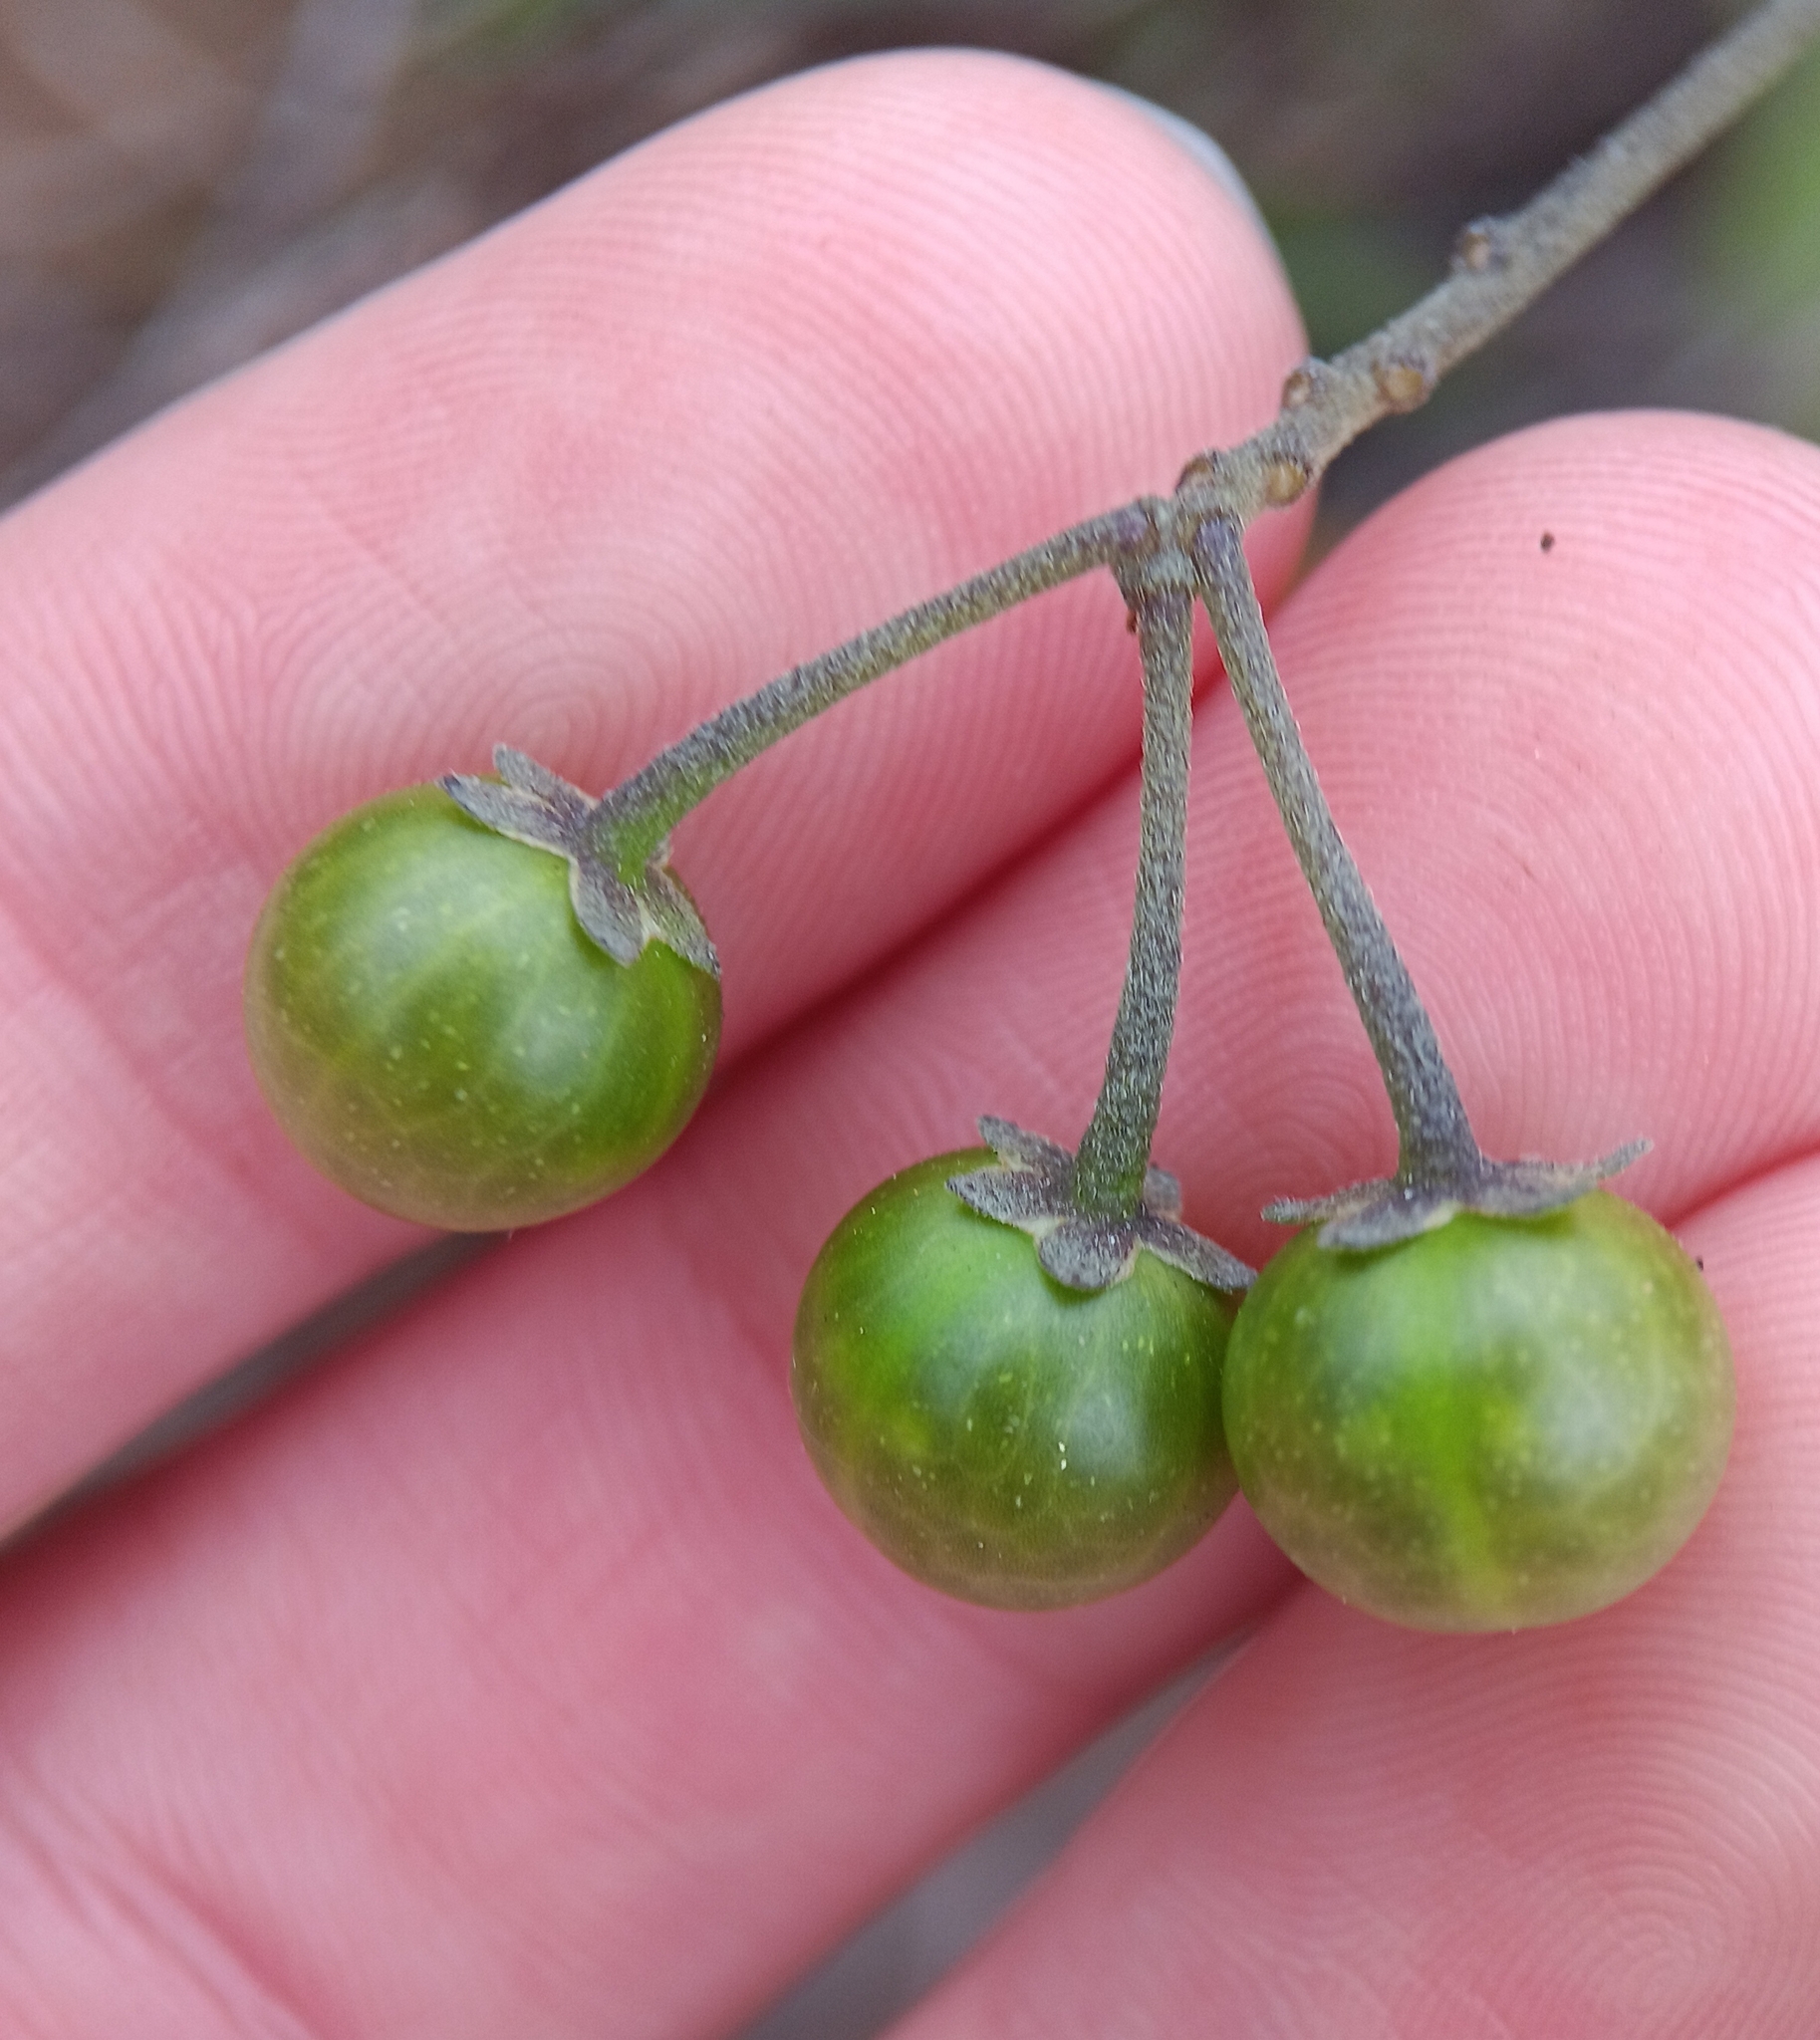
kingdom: Plantae
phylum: Tracheophyta
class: Magnoliopsida
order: Solanales
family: Solanaceae
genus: Solanum
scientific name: Solanum douglasii
